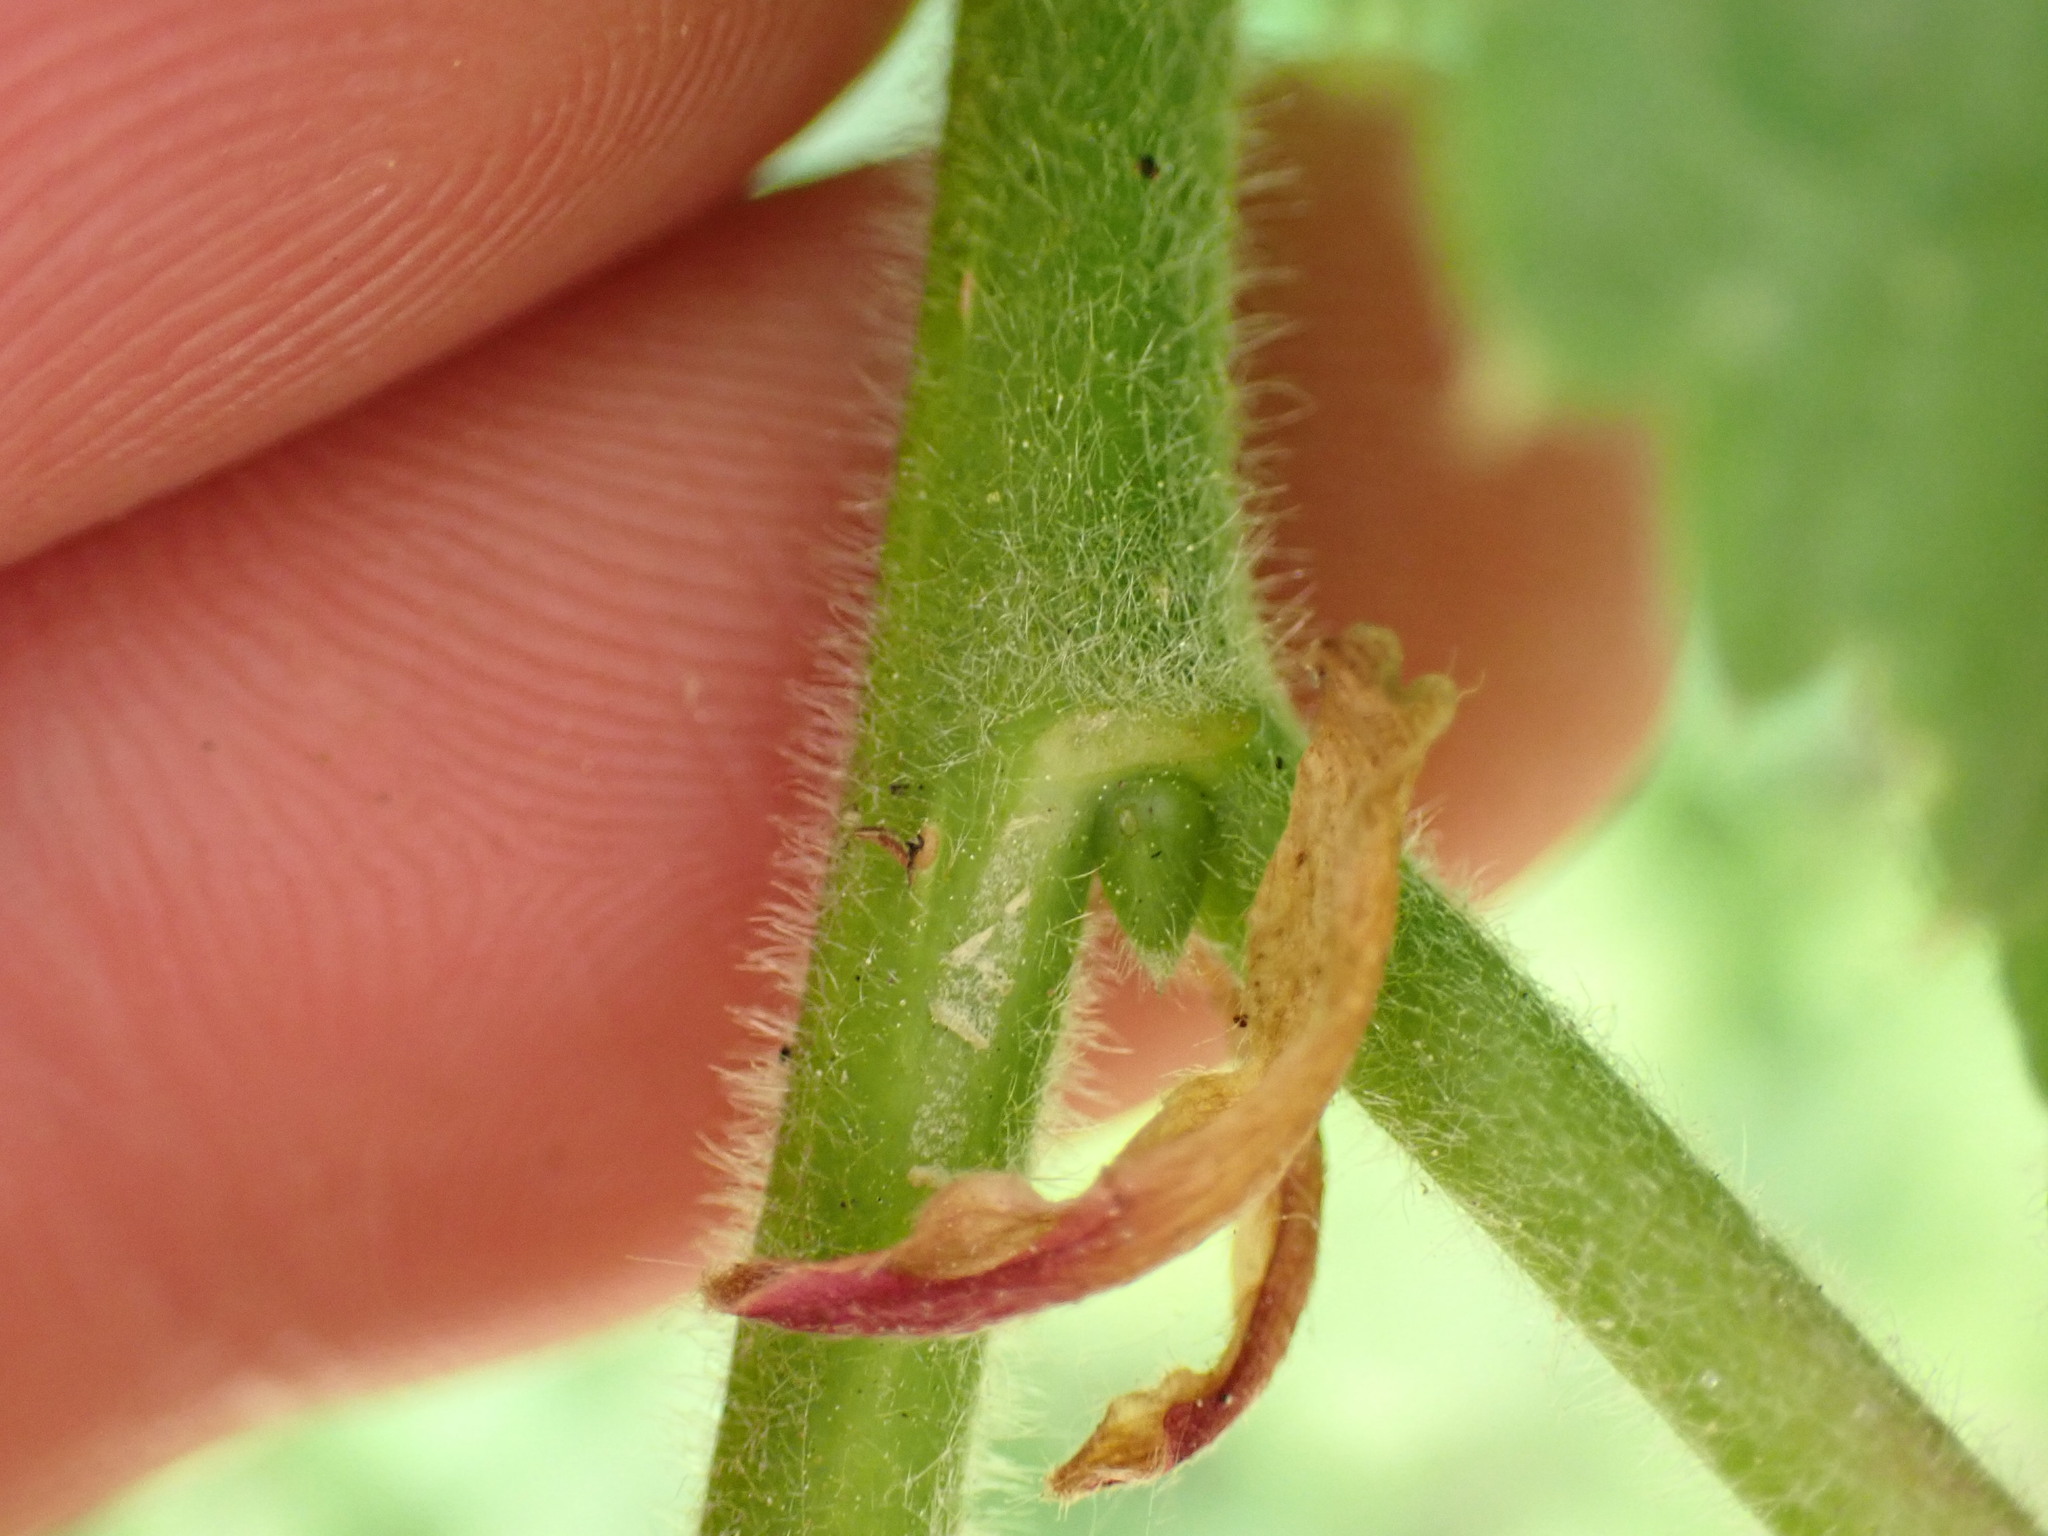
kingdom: Plantae
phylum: Tracheophyta
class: Magnoliopsida
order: Malvales
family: Malvaceae
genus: Tilia
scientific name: Tilia platyphyllos
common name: Large-leaved lime
